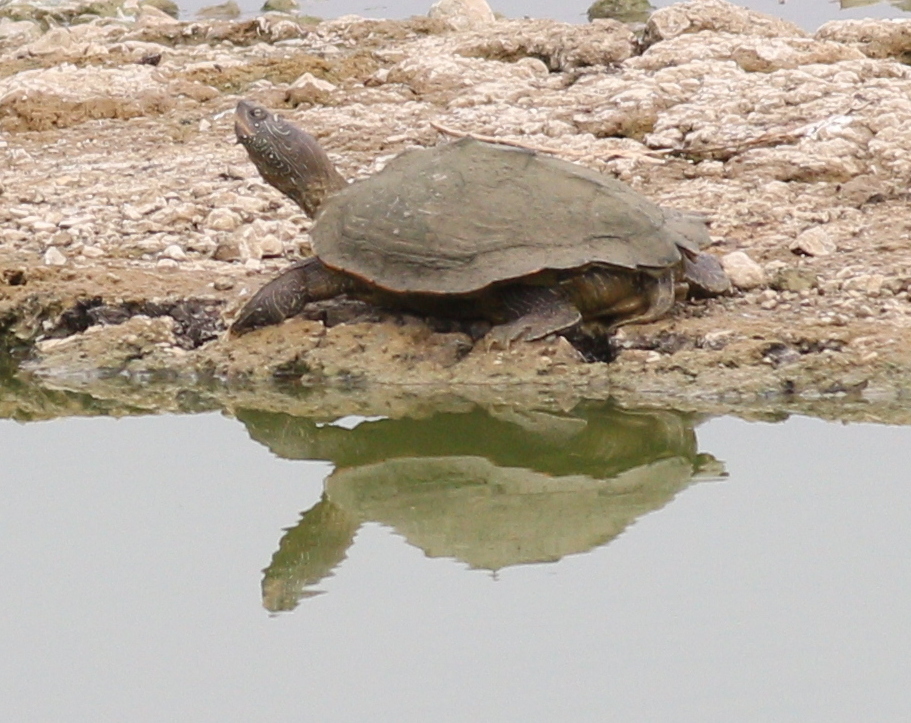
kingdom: Animalia
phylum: Chordata
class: Testudines
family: Emydidae
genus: Graptemys
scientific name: Graptemys pseudogeographica
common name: False map turtle
